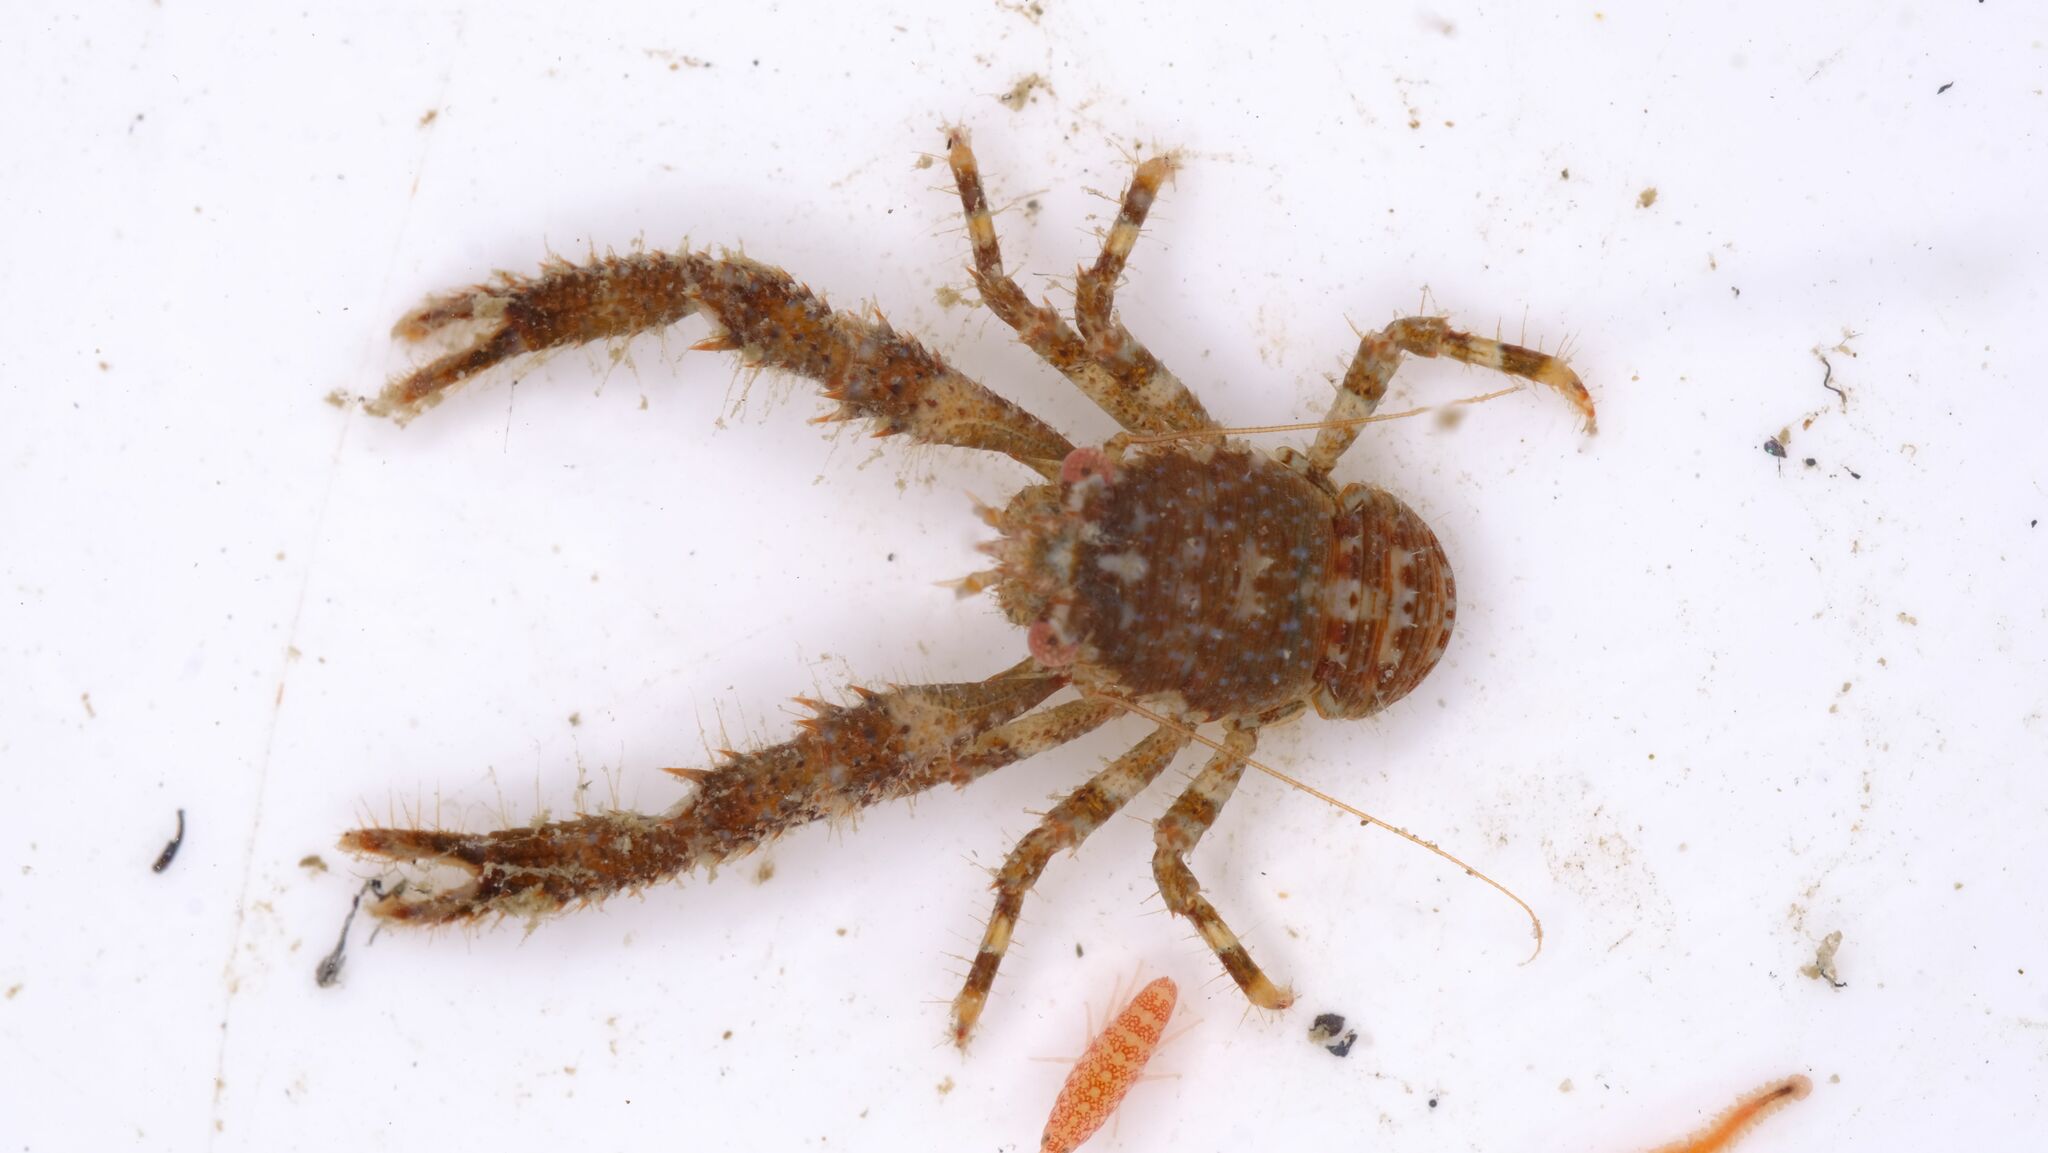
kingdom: Animalia
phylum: Arthropoda
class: Malacostraca
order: Decapoda
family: Galatheidae
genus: Galathea
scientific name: Galathea australiensis
